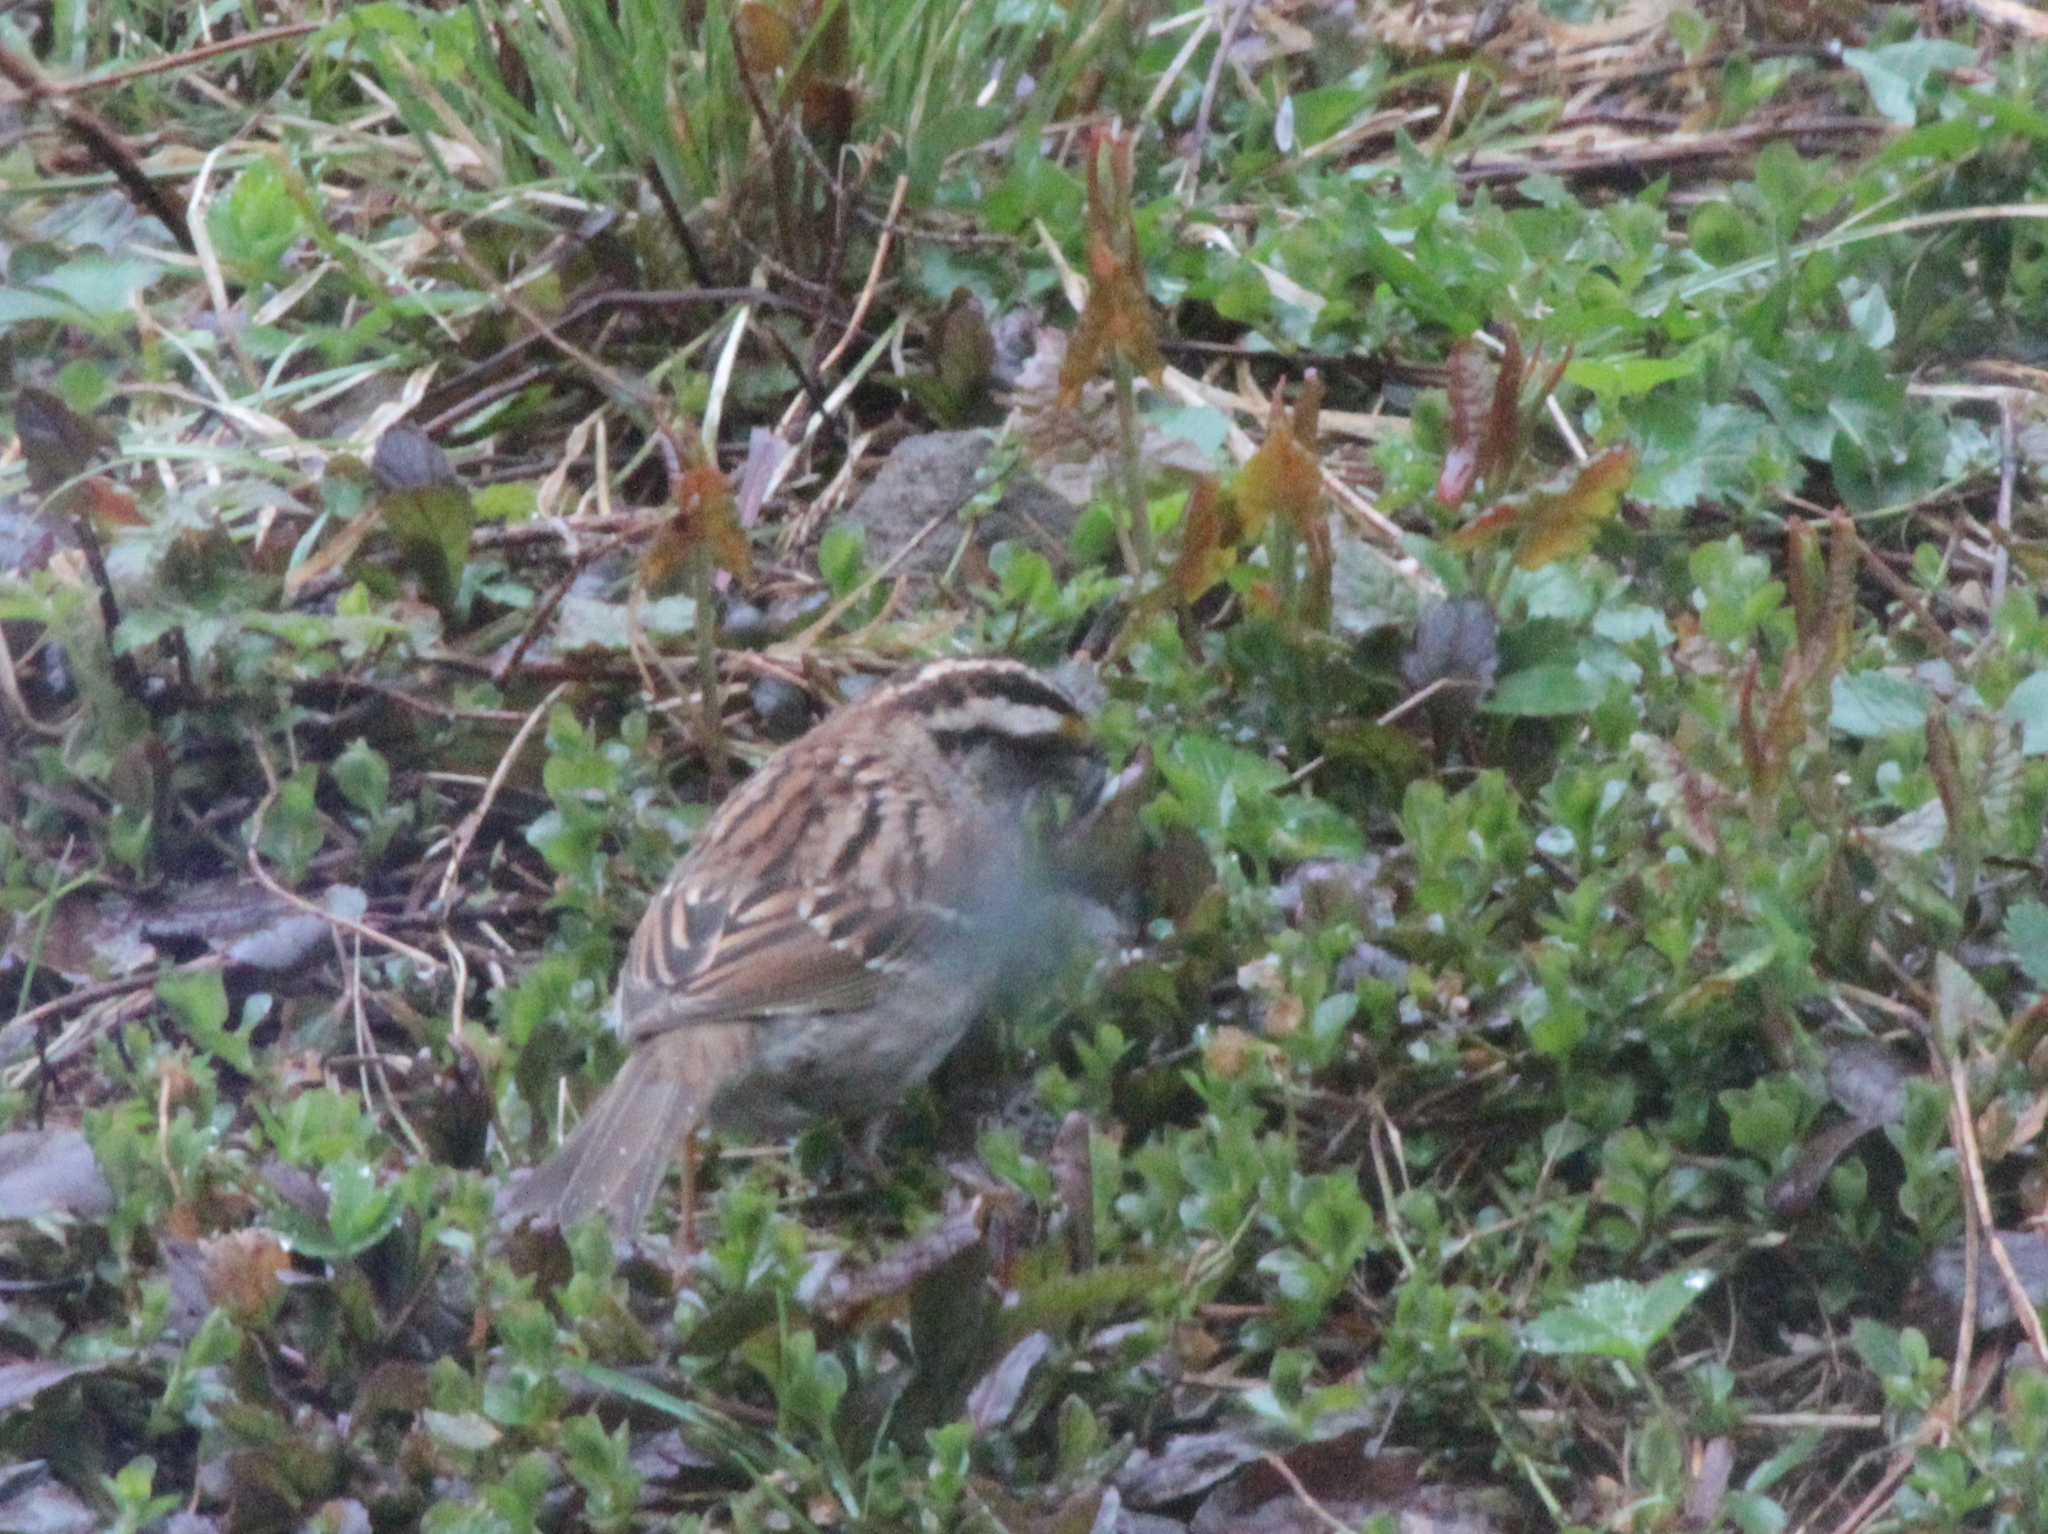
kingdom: Animalia
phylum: Chordata
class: Aves
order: Passeriformes
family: Passerellidae
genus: Zonotrichia
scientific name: Zonotrichia albicollis
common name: White-throated sparrow
